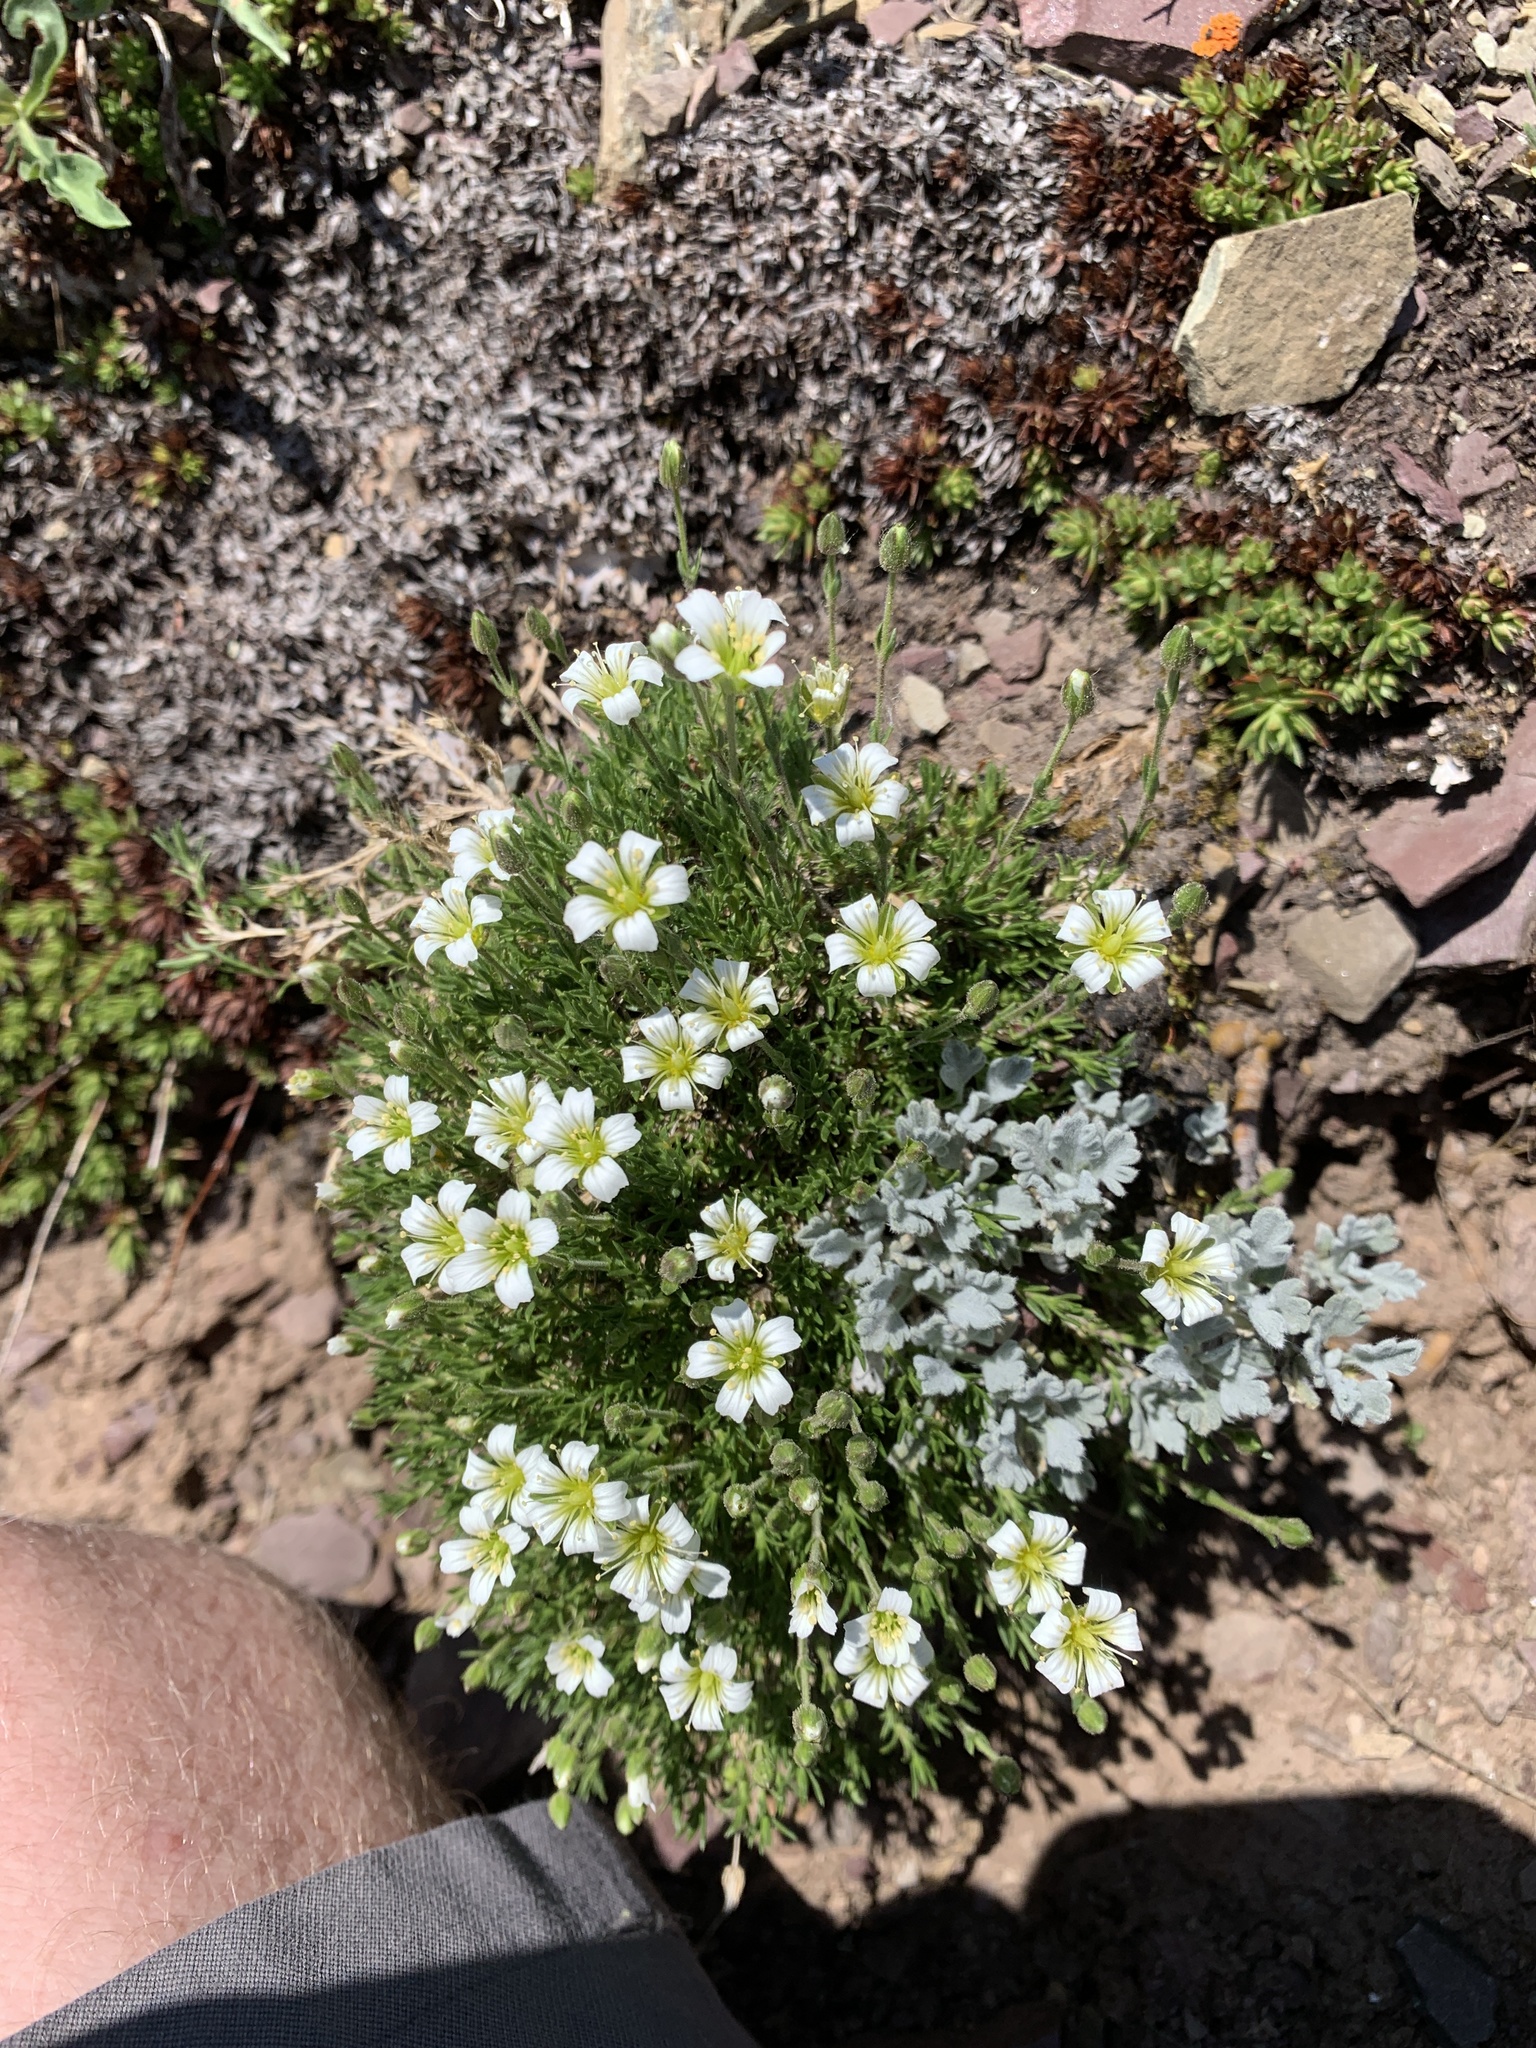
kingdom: Plantae
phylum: Tracheophyta
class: Magnoliopsida
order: Caryophyllales
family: Caryophyllaceae
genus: Cherleria
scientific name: Cherleria obtusiloba
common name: Alpine stitchwort
